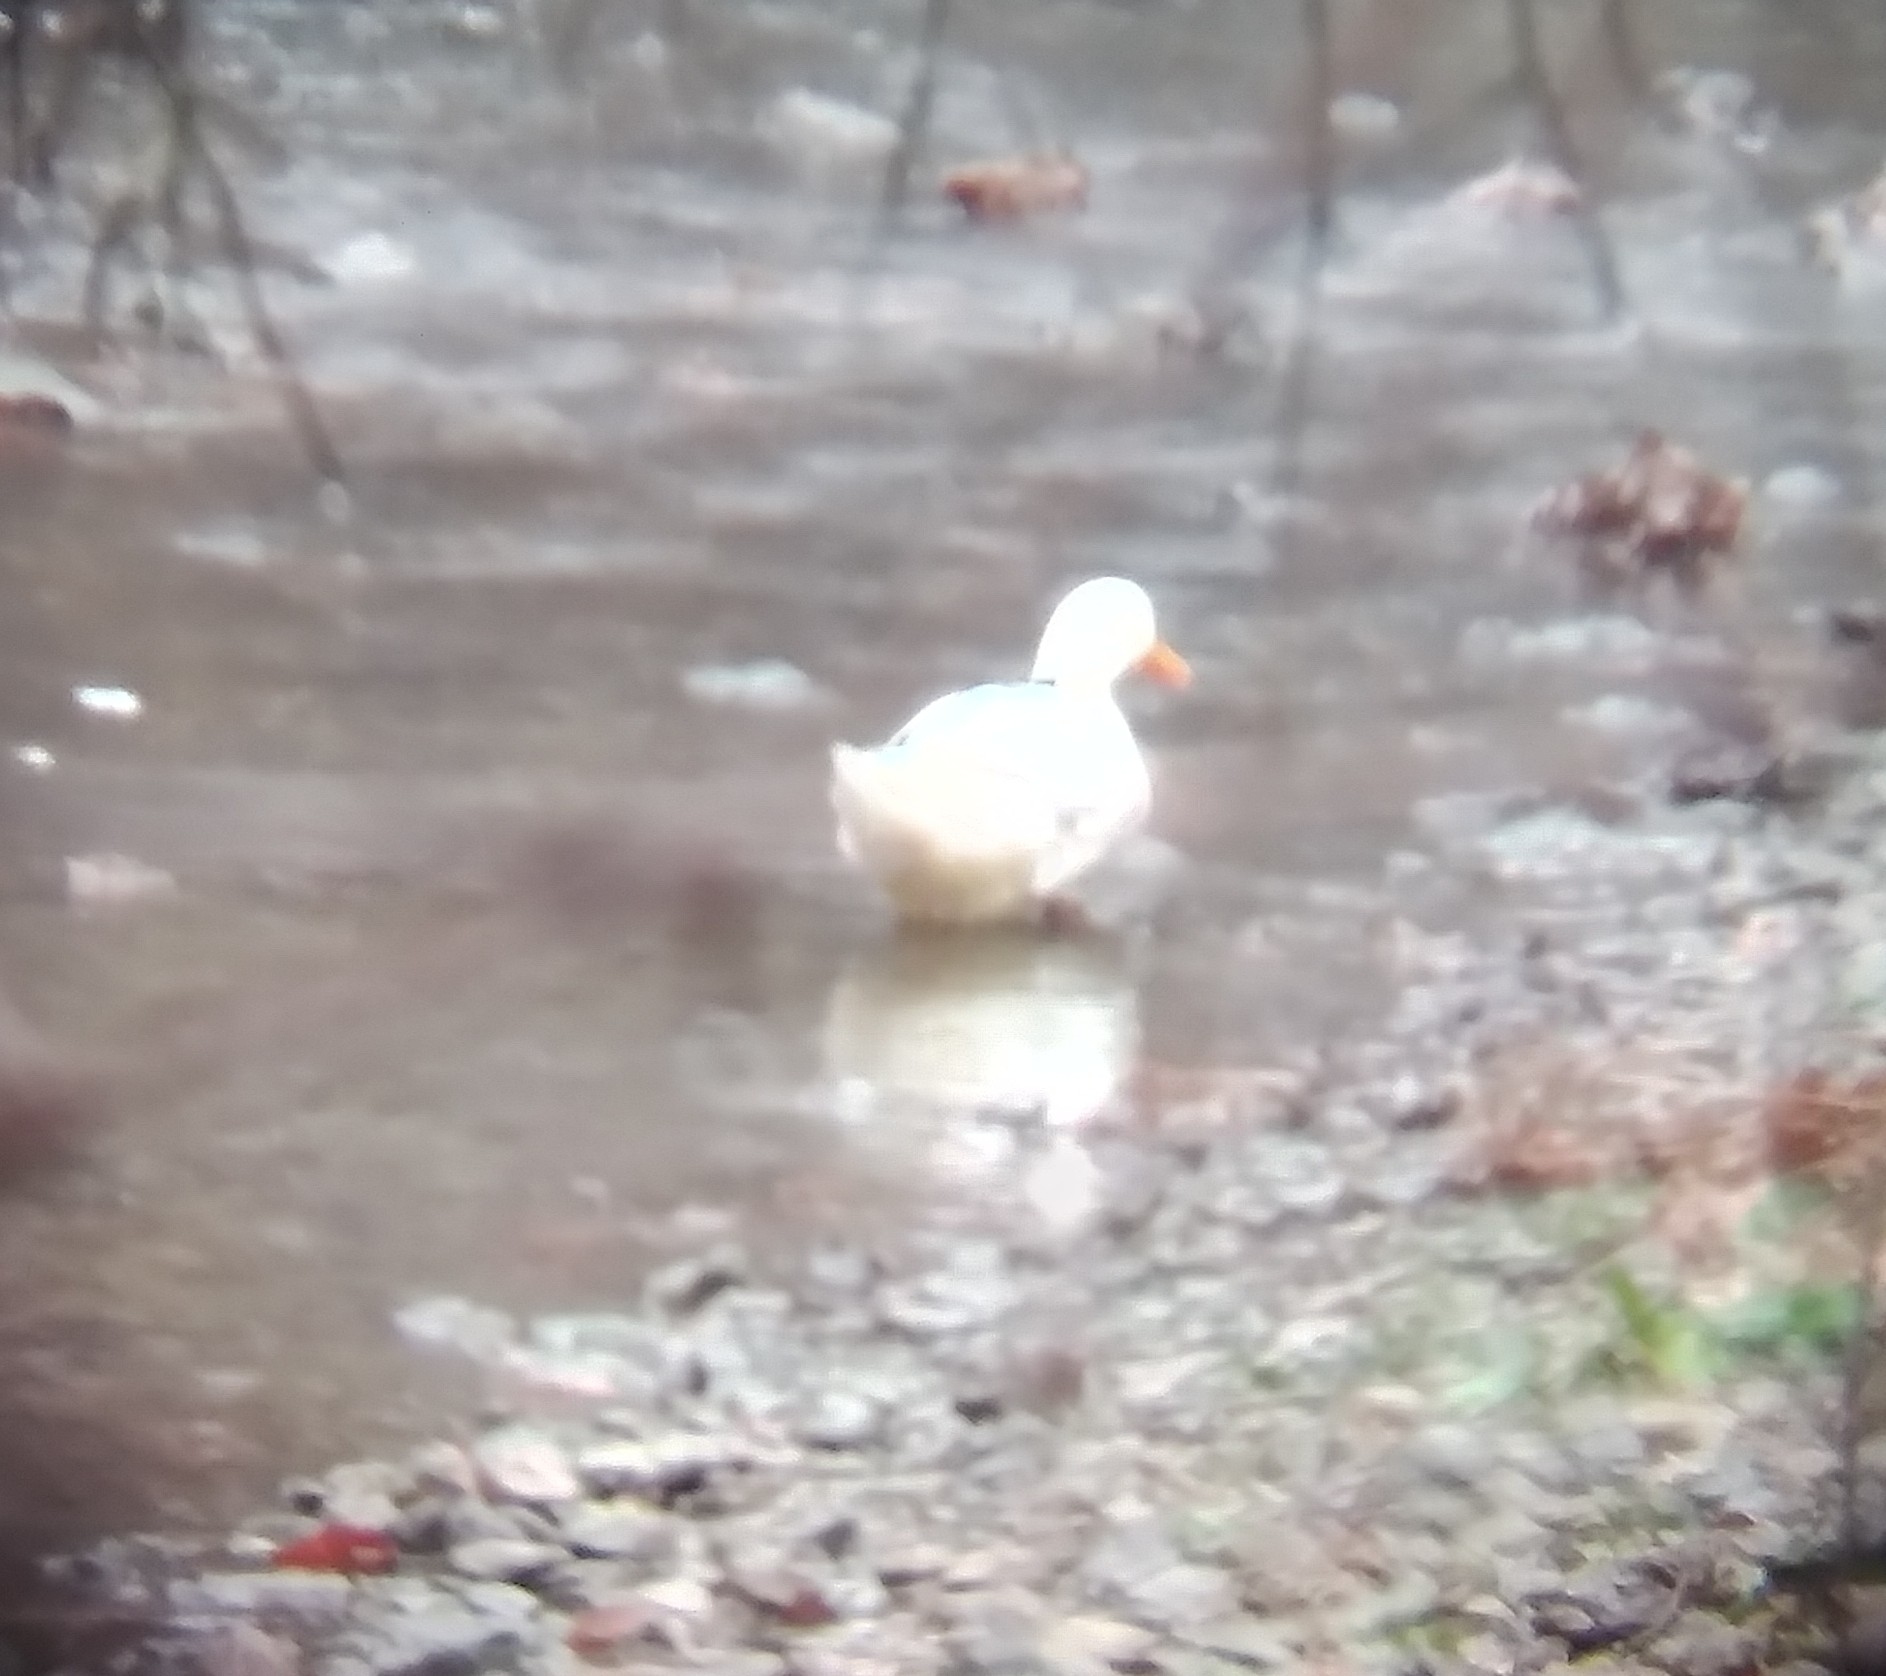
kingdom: Animalia
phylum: Chordata
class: Aves
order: Anseriformes
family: Anatidae
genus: Anas
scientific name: Anas platyrhynchos
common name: Mallard
